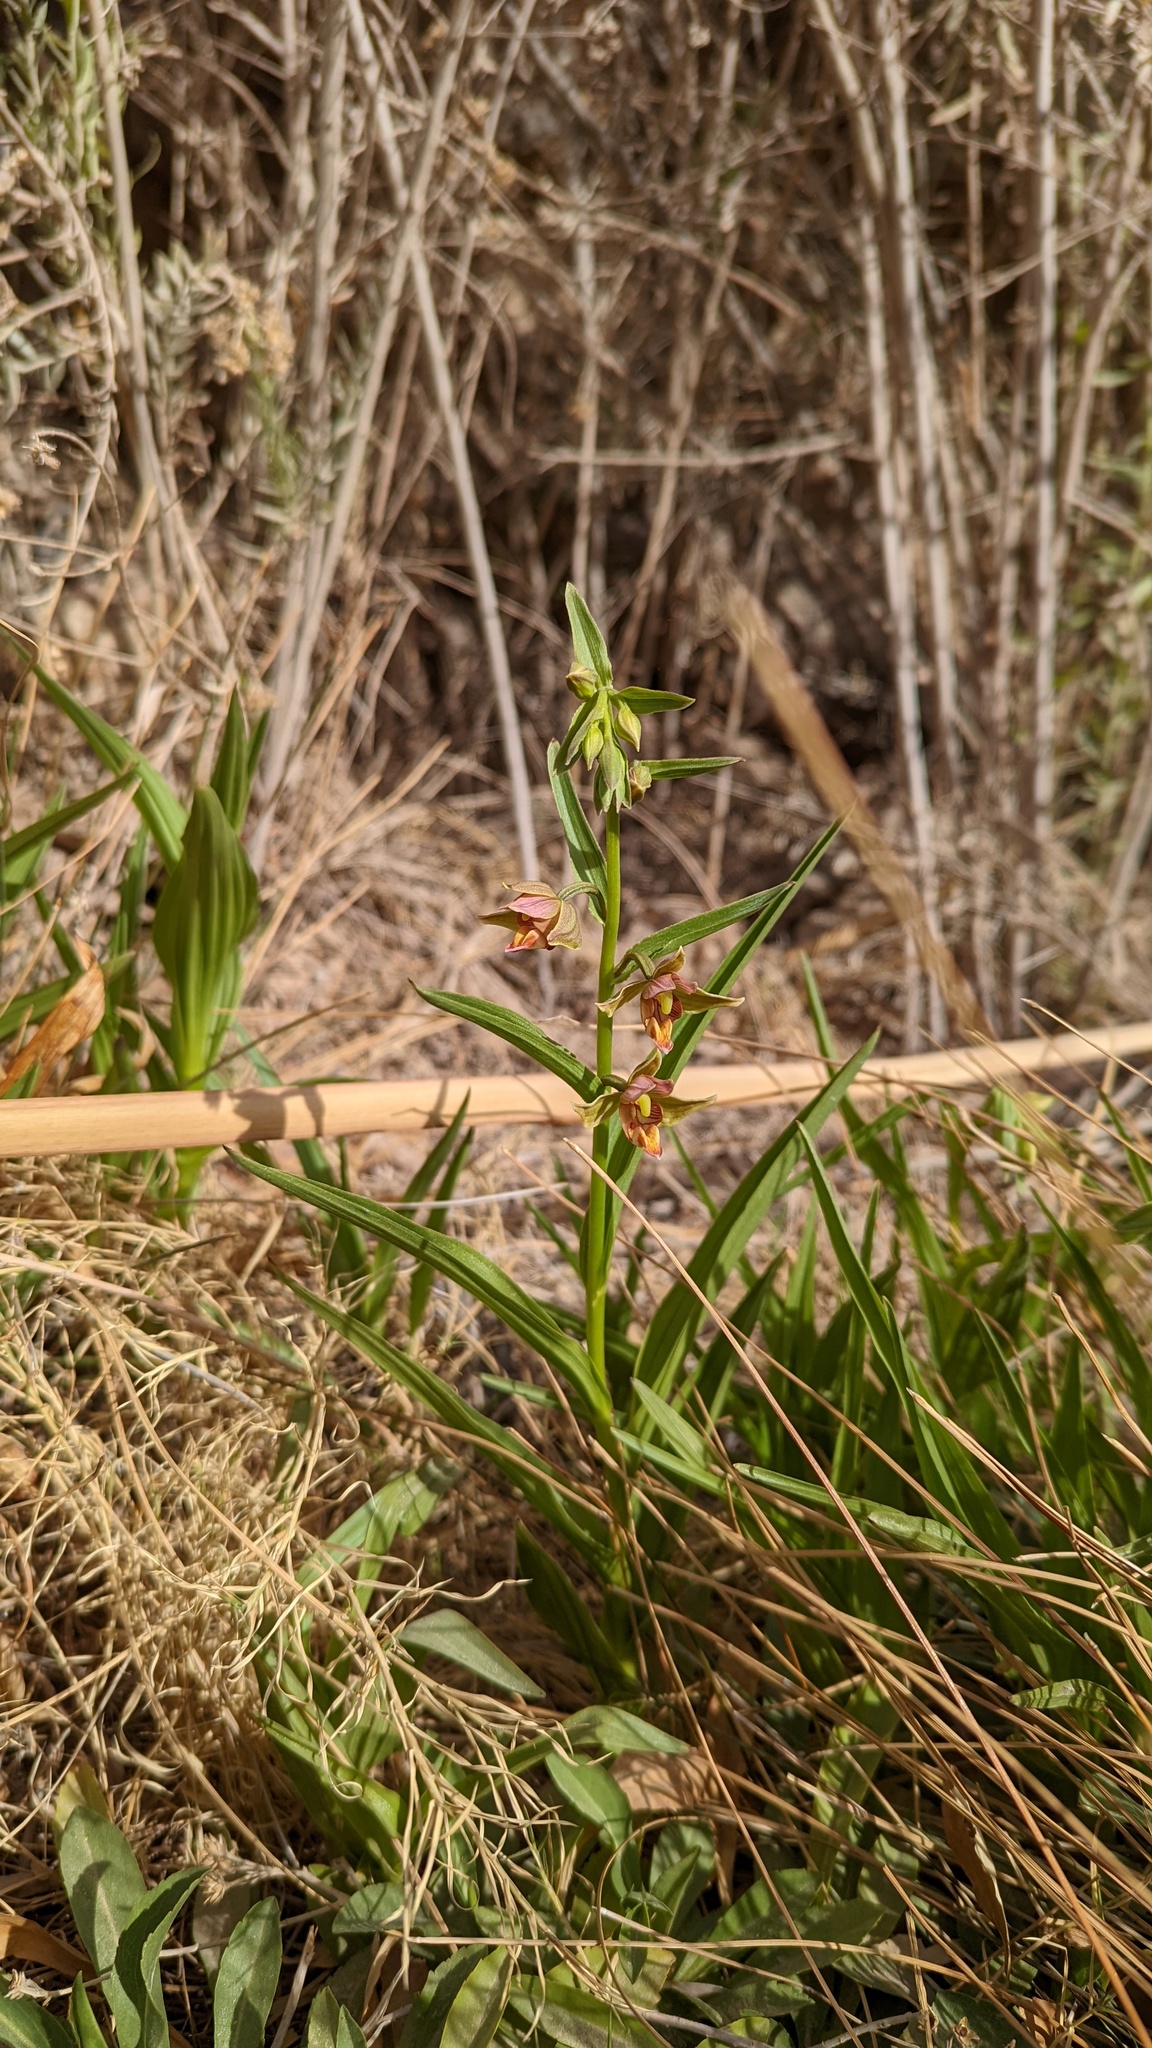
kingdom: Plantae
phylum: Tracheophyta
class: Liliopsida
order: Asparagales
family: Orchidaceae
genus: Epipactis
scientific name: Epipactis gigantea
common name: Chatterbox
